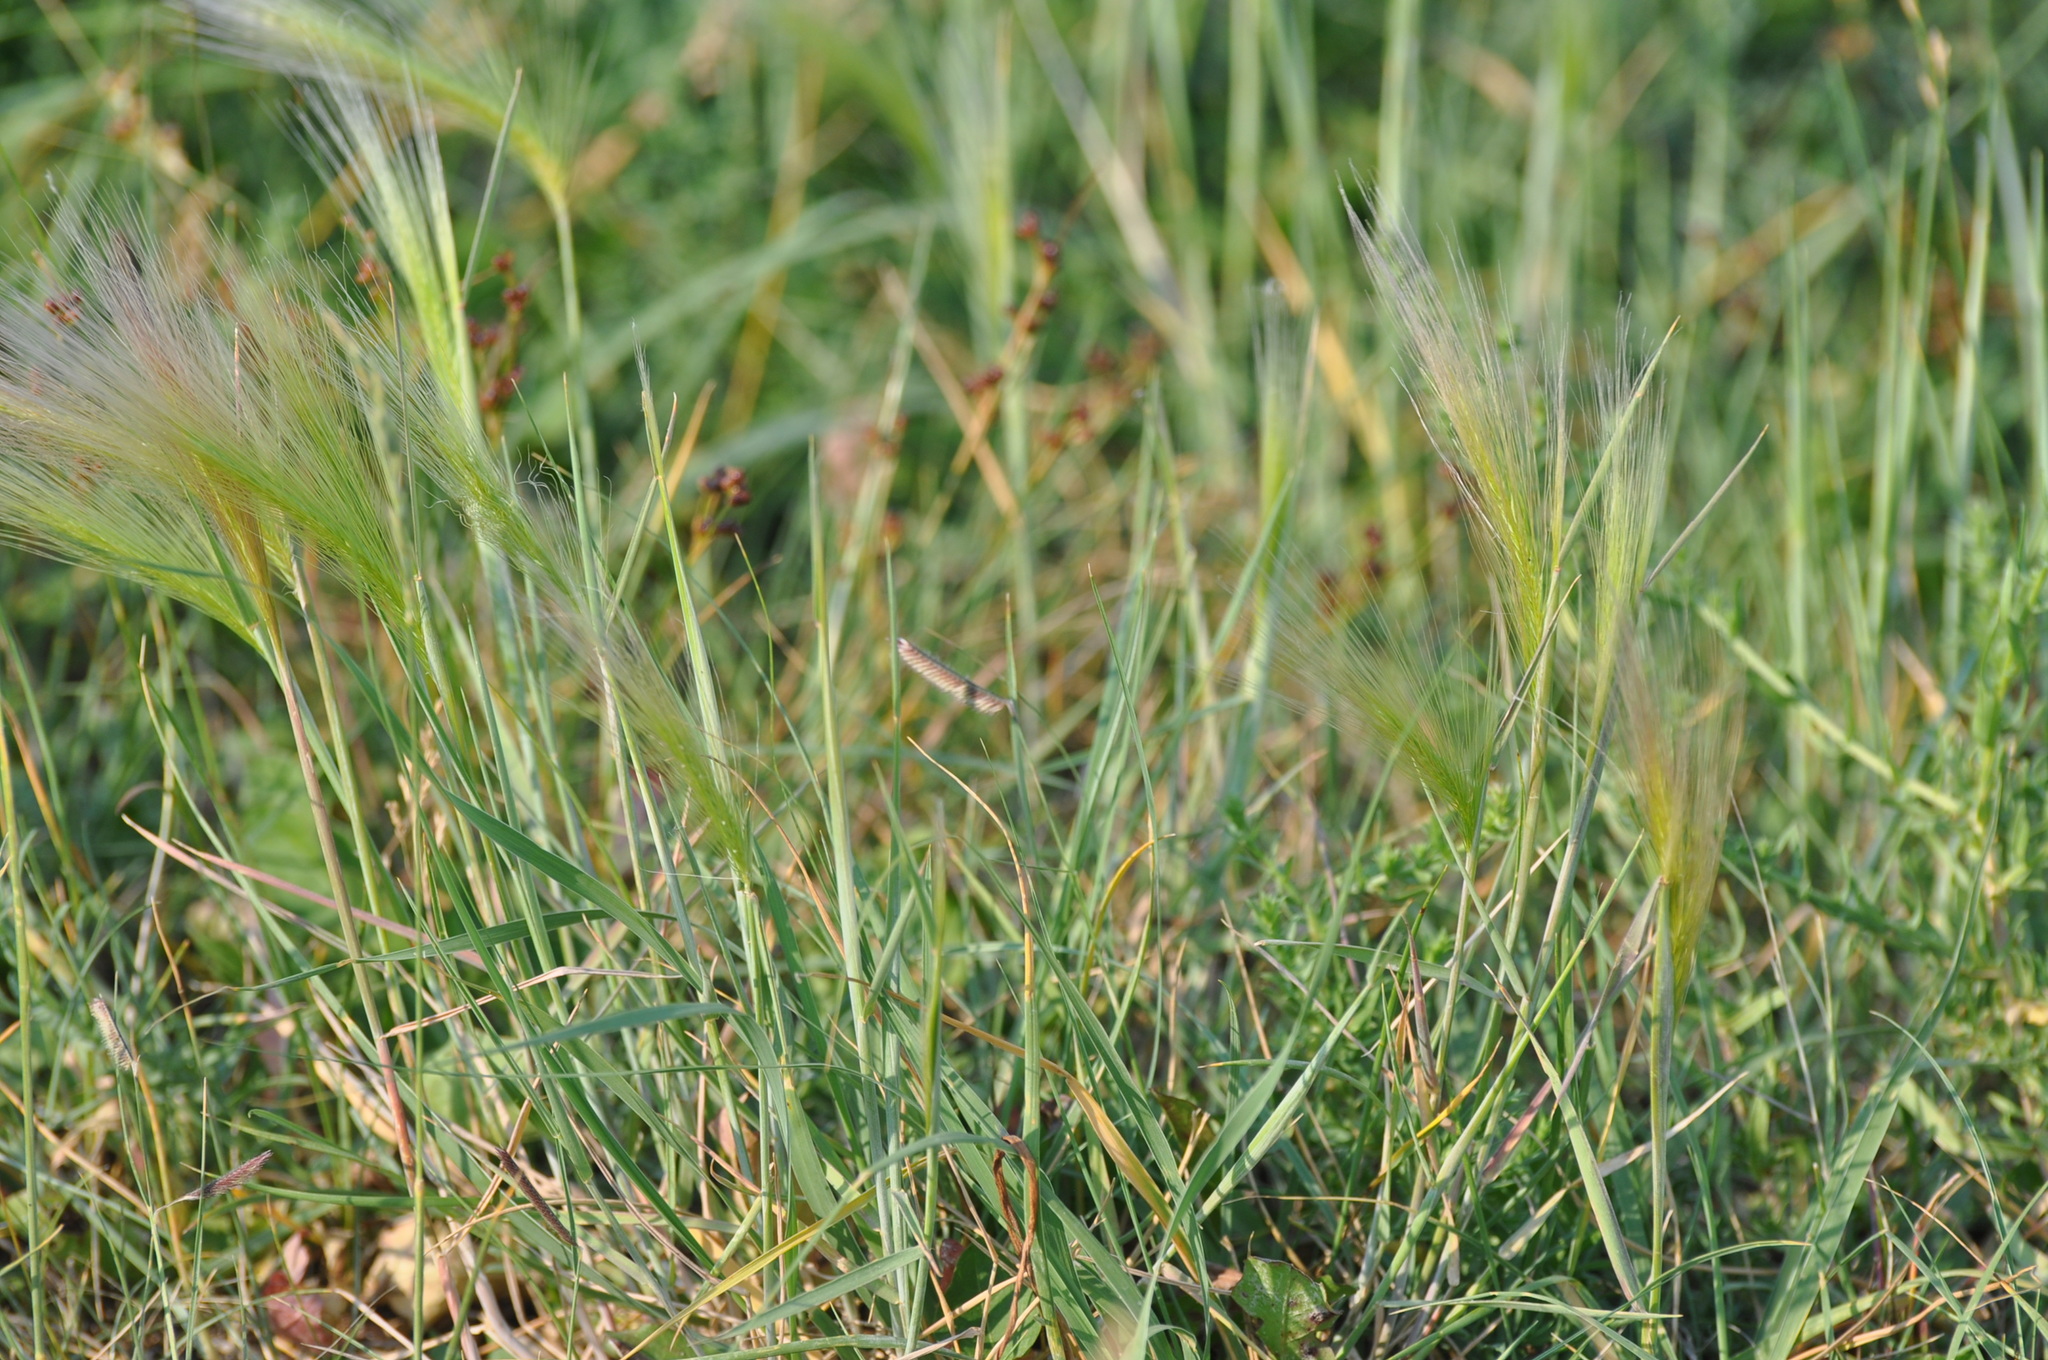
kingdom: Plantae
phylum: Tracheophyta
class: Liliopsida
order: Poales
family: Poaceae
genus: Hordeum
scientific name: Hordeum jubatum
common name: Foxtail barley
